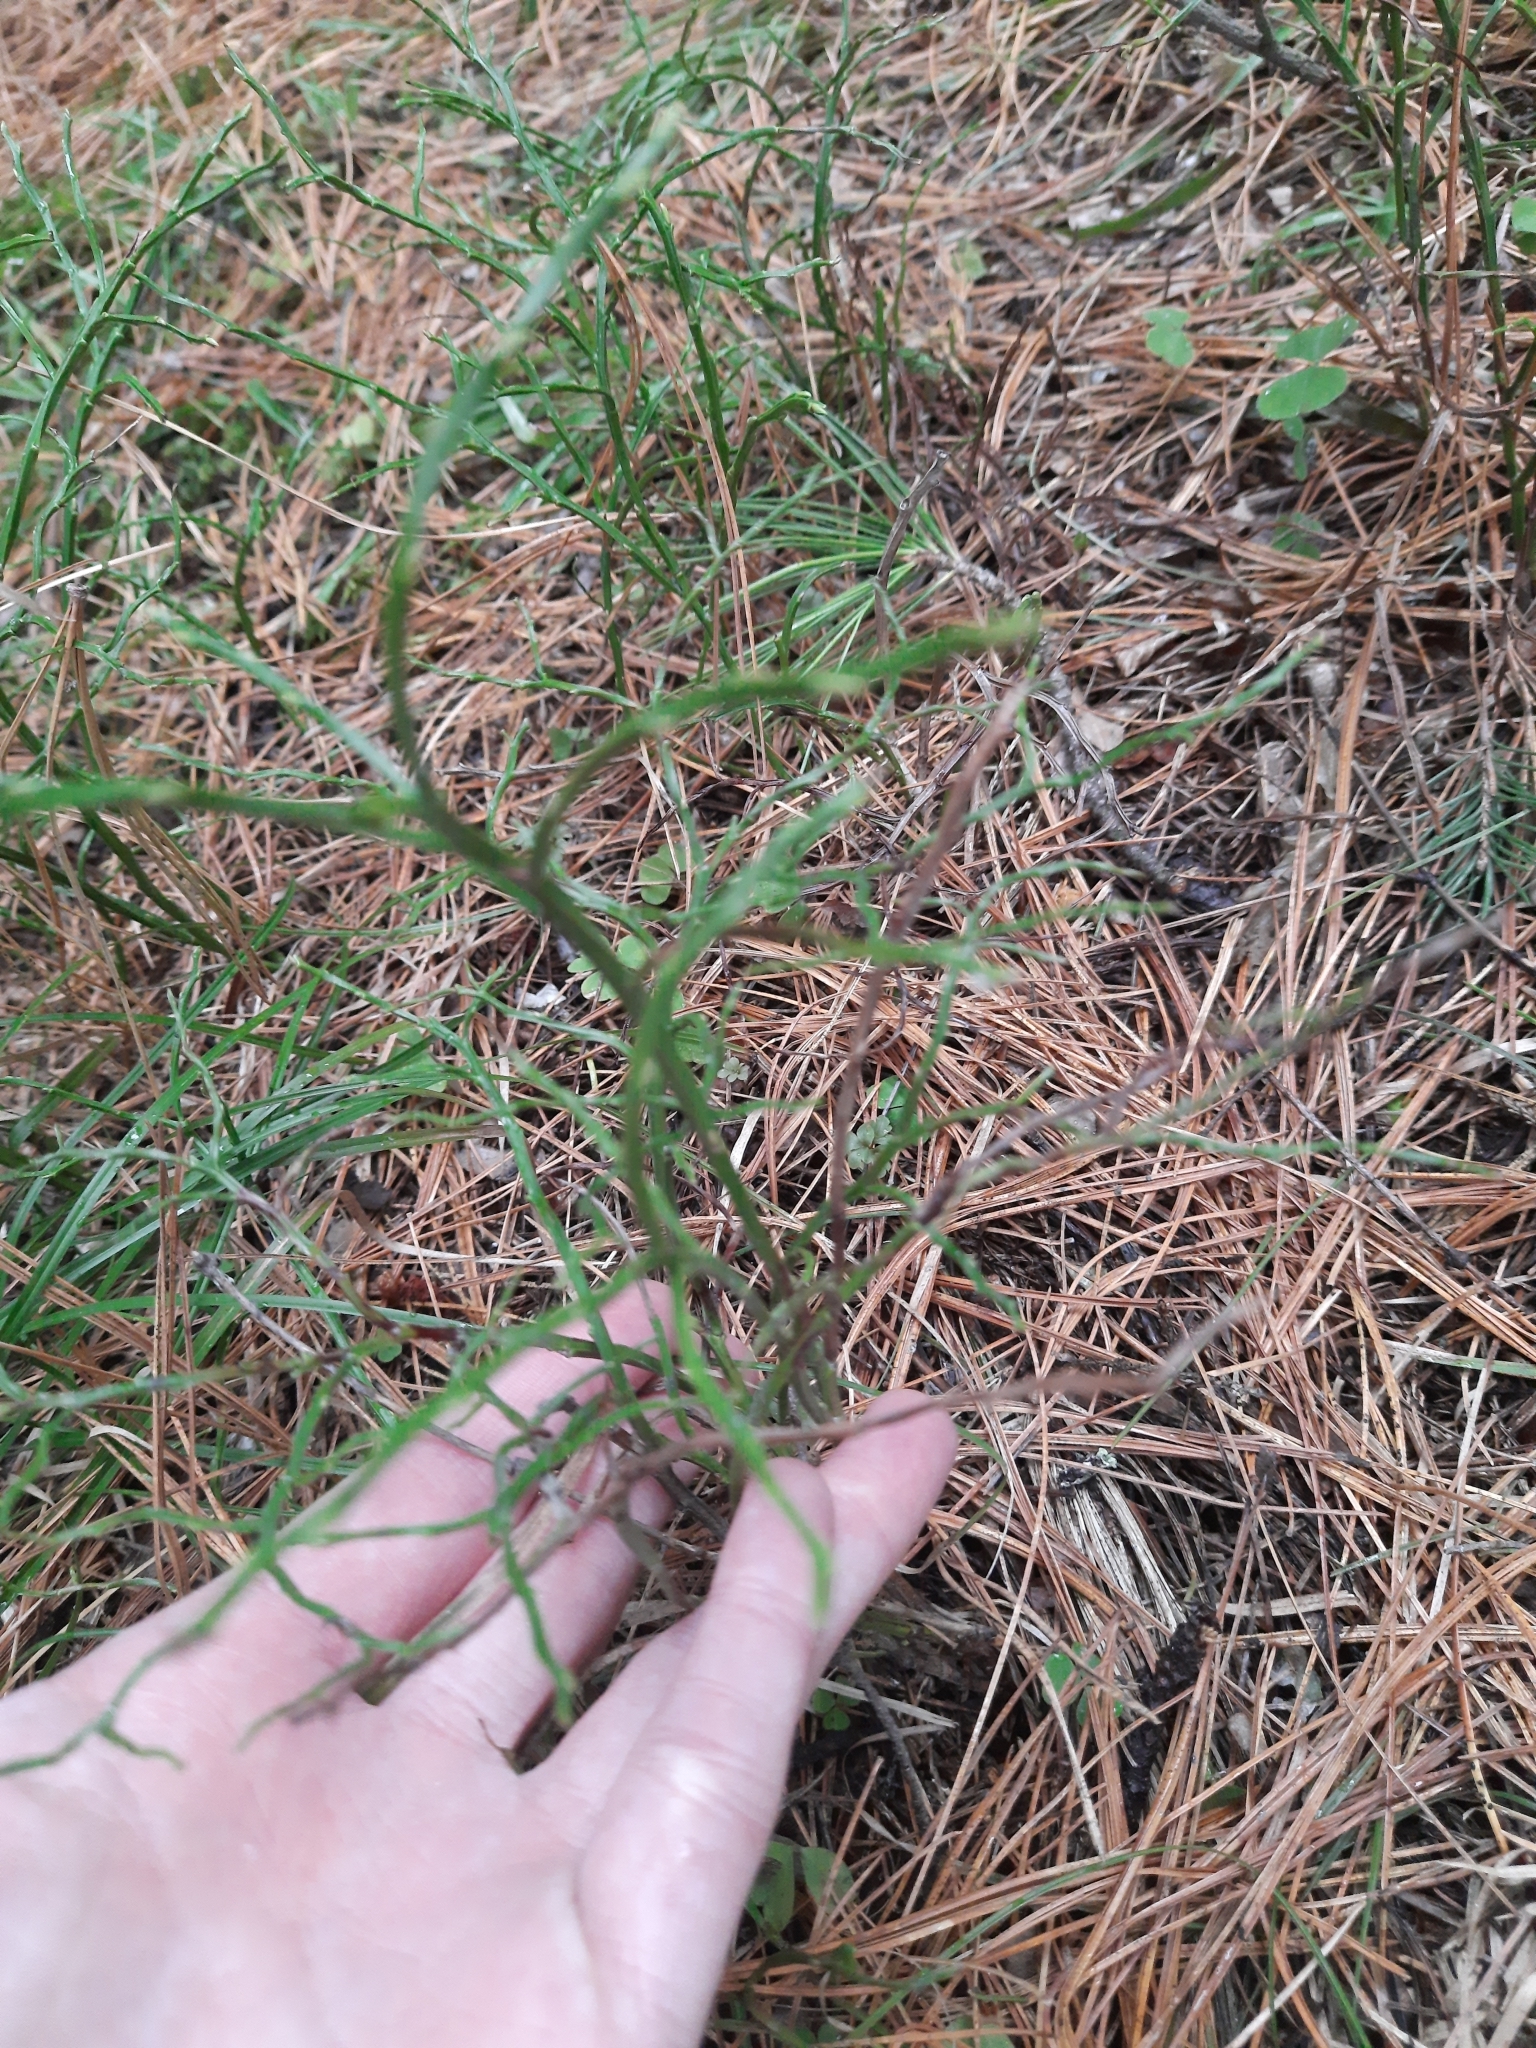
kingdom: Plantae
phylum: Tracheophyta
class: Magnoliopsida
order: Ericales
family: Ericaceae
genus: Vaccinium
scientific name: Vaccinium myrtillus
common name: Bilberry
